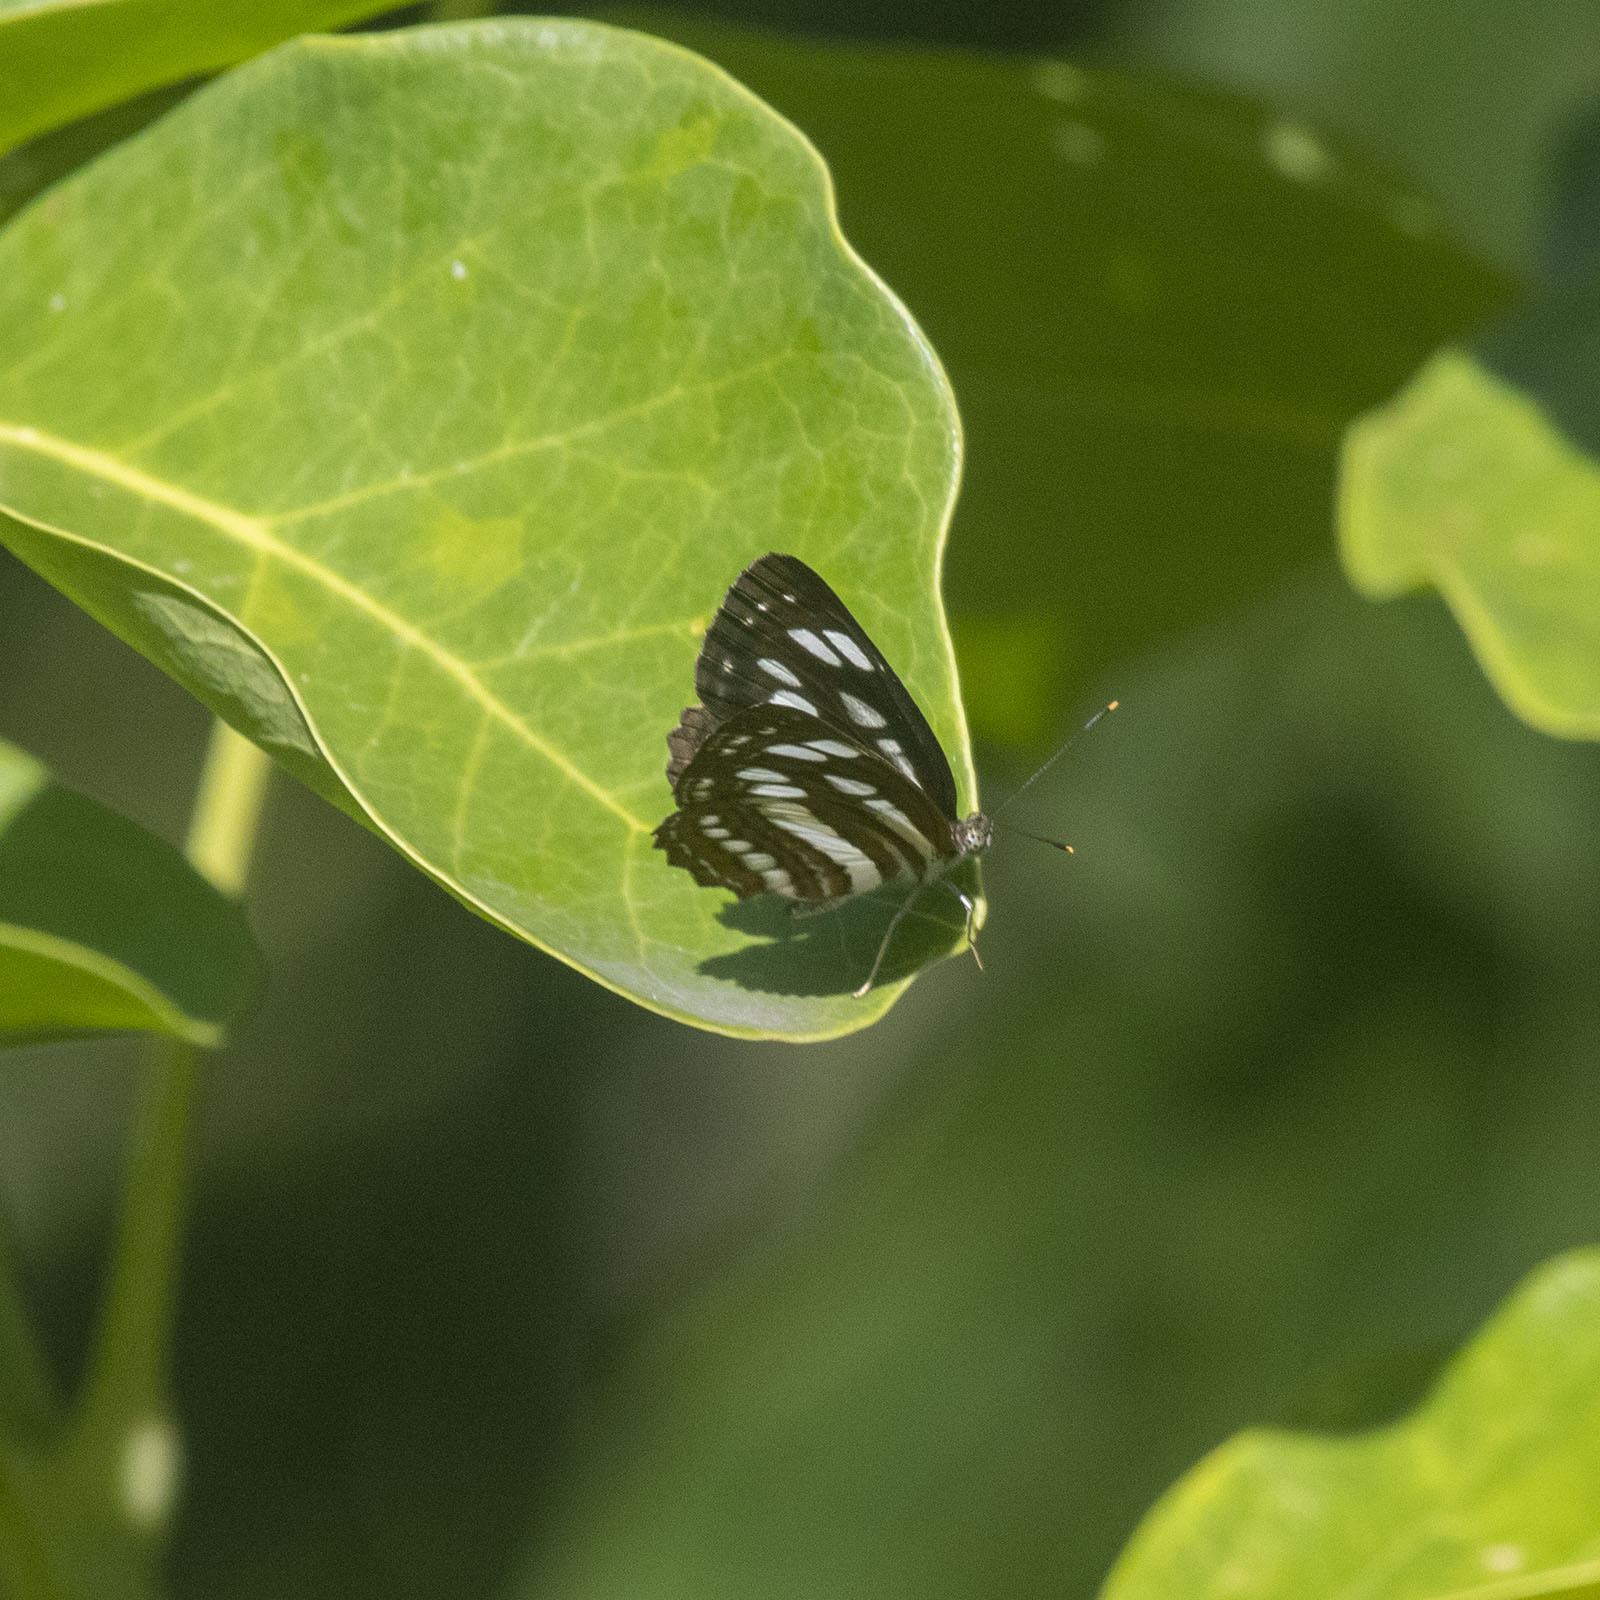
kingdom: Animalia
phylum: Arthropoda
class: Insecta
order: Lepidoptera
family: Nymphalidae
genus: Neptis
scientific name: Neptis hylas
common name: Common sailer
